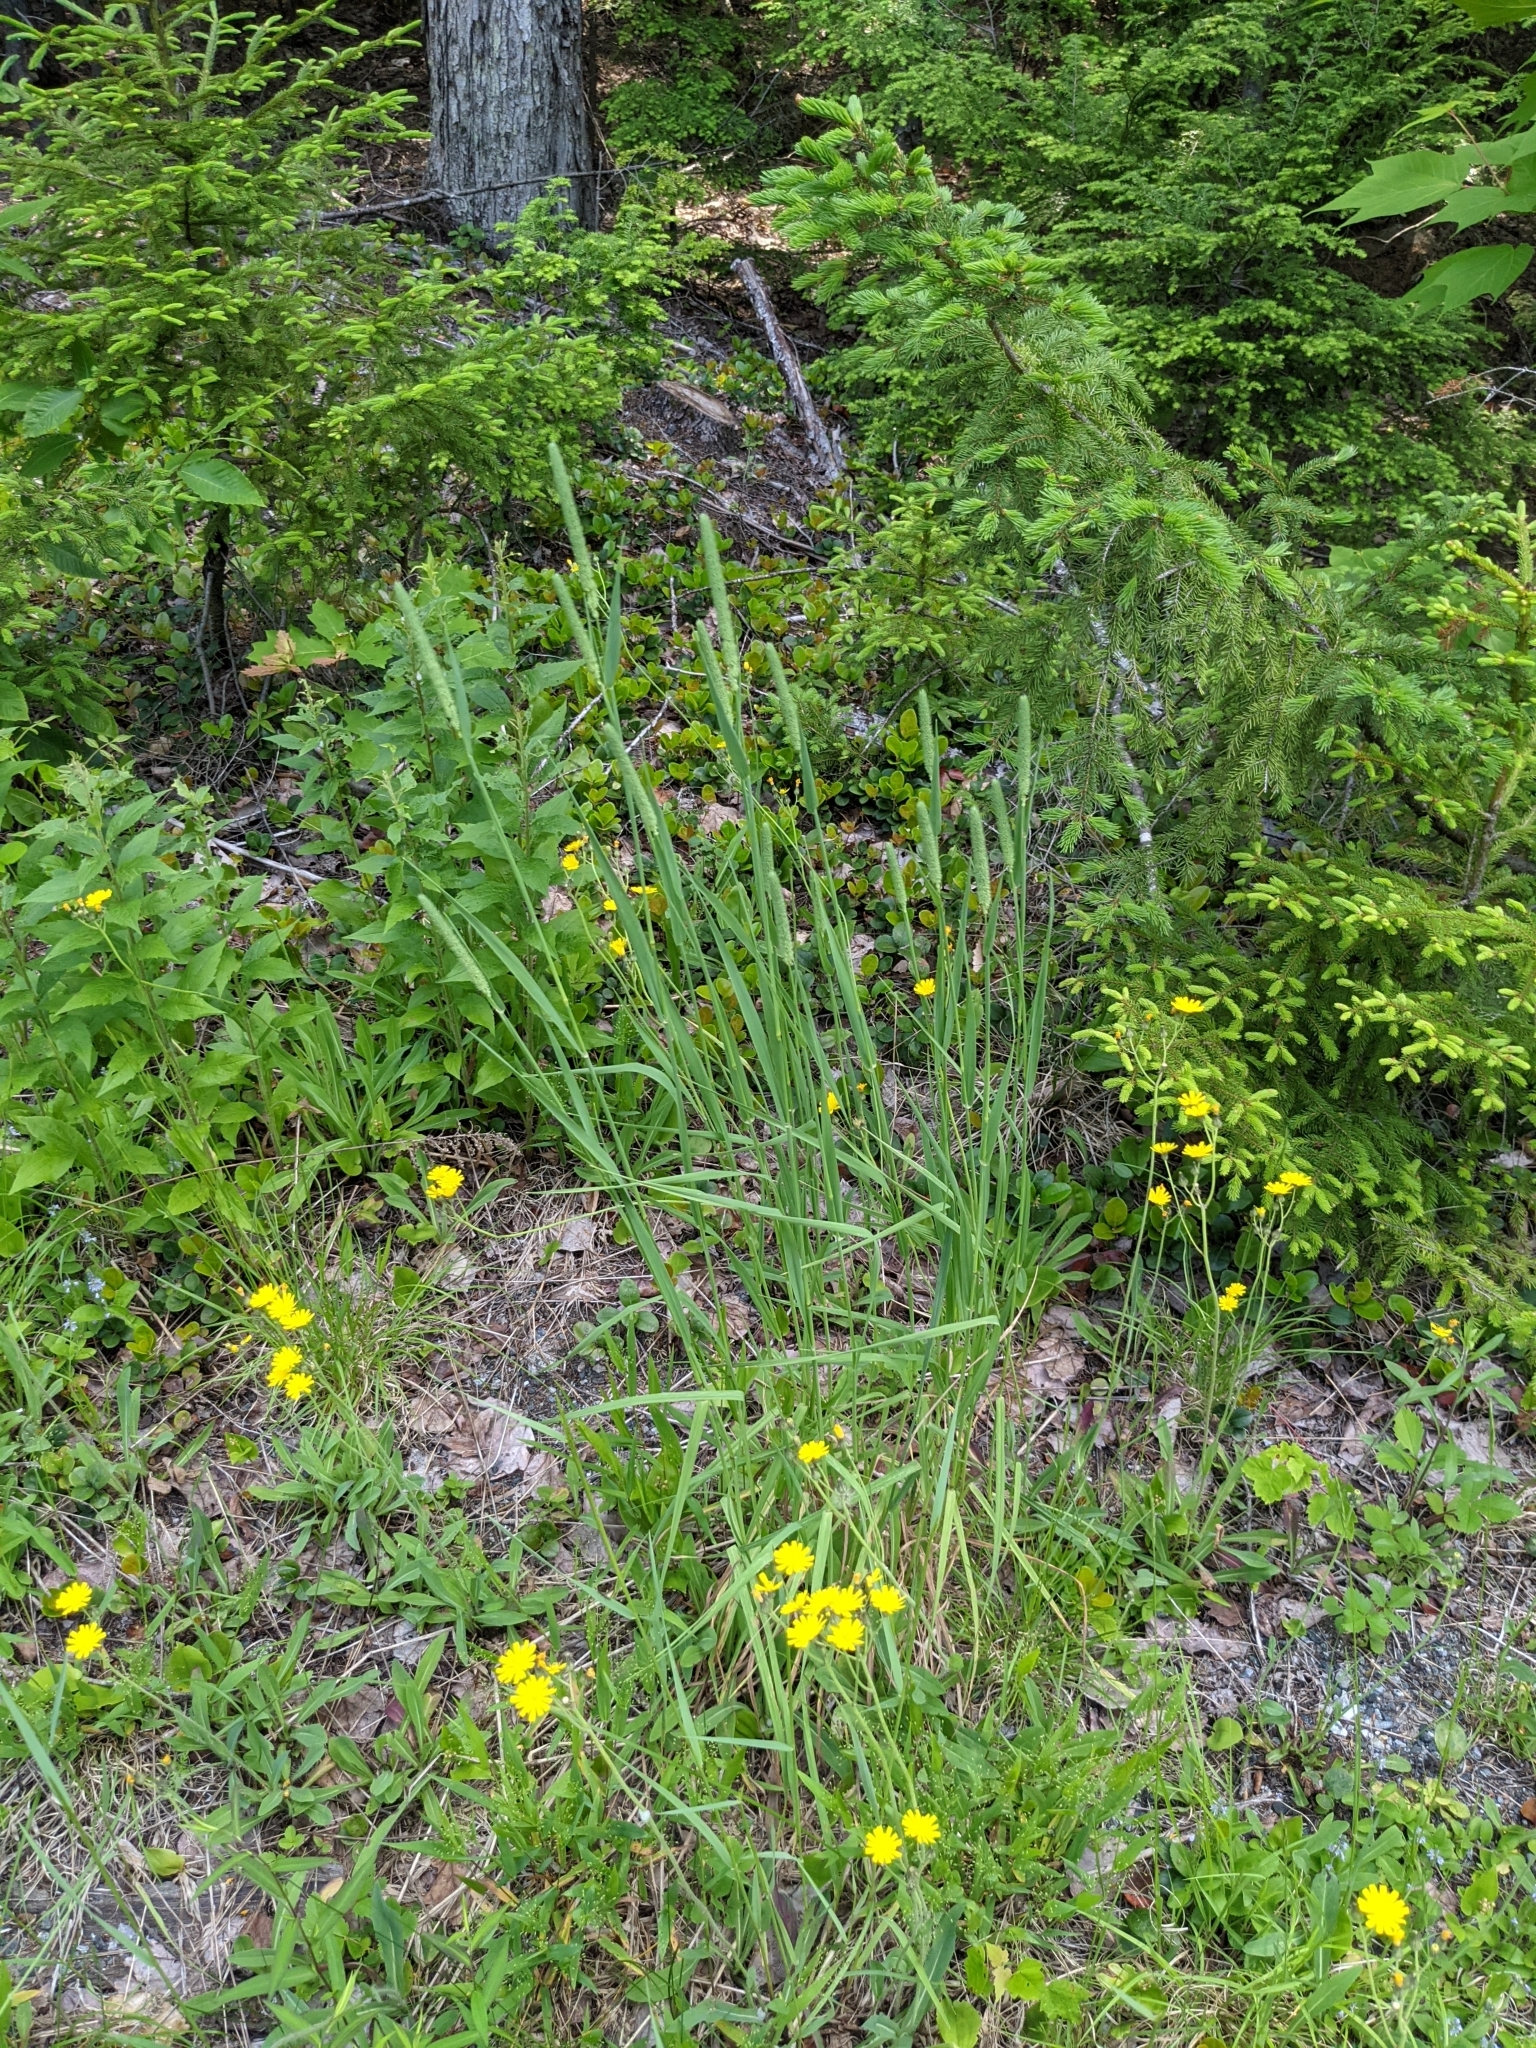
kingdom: Plantae
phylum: Tracheophyta
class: Liliopsida
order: Poales
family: Poaceae
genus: Phleum
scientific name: Phleum pratense
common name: Timothy grass
